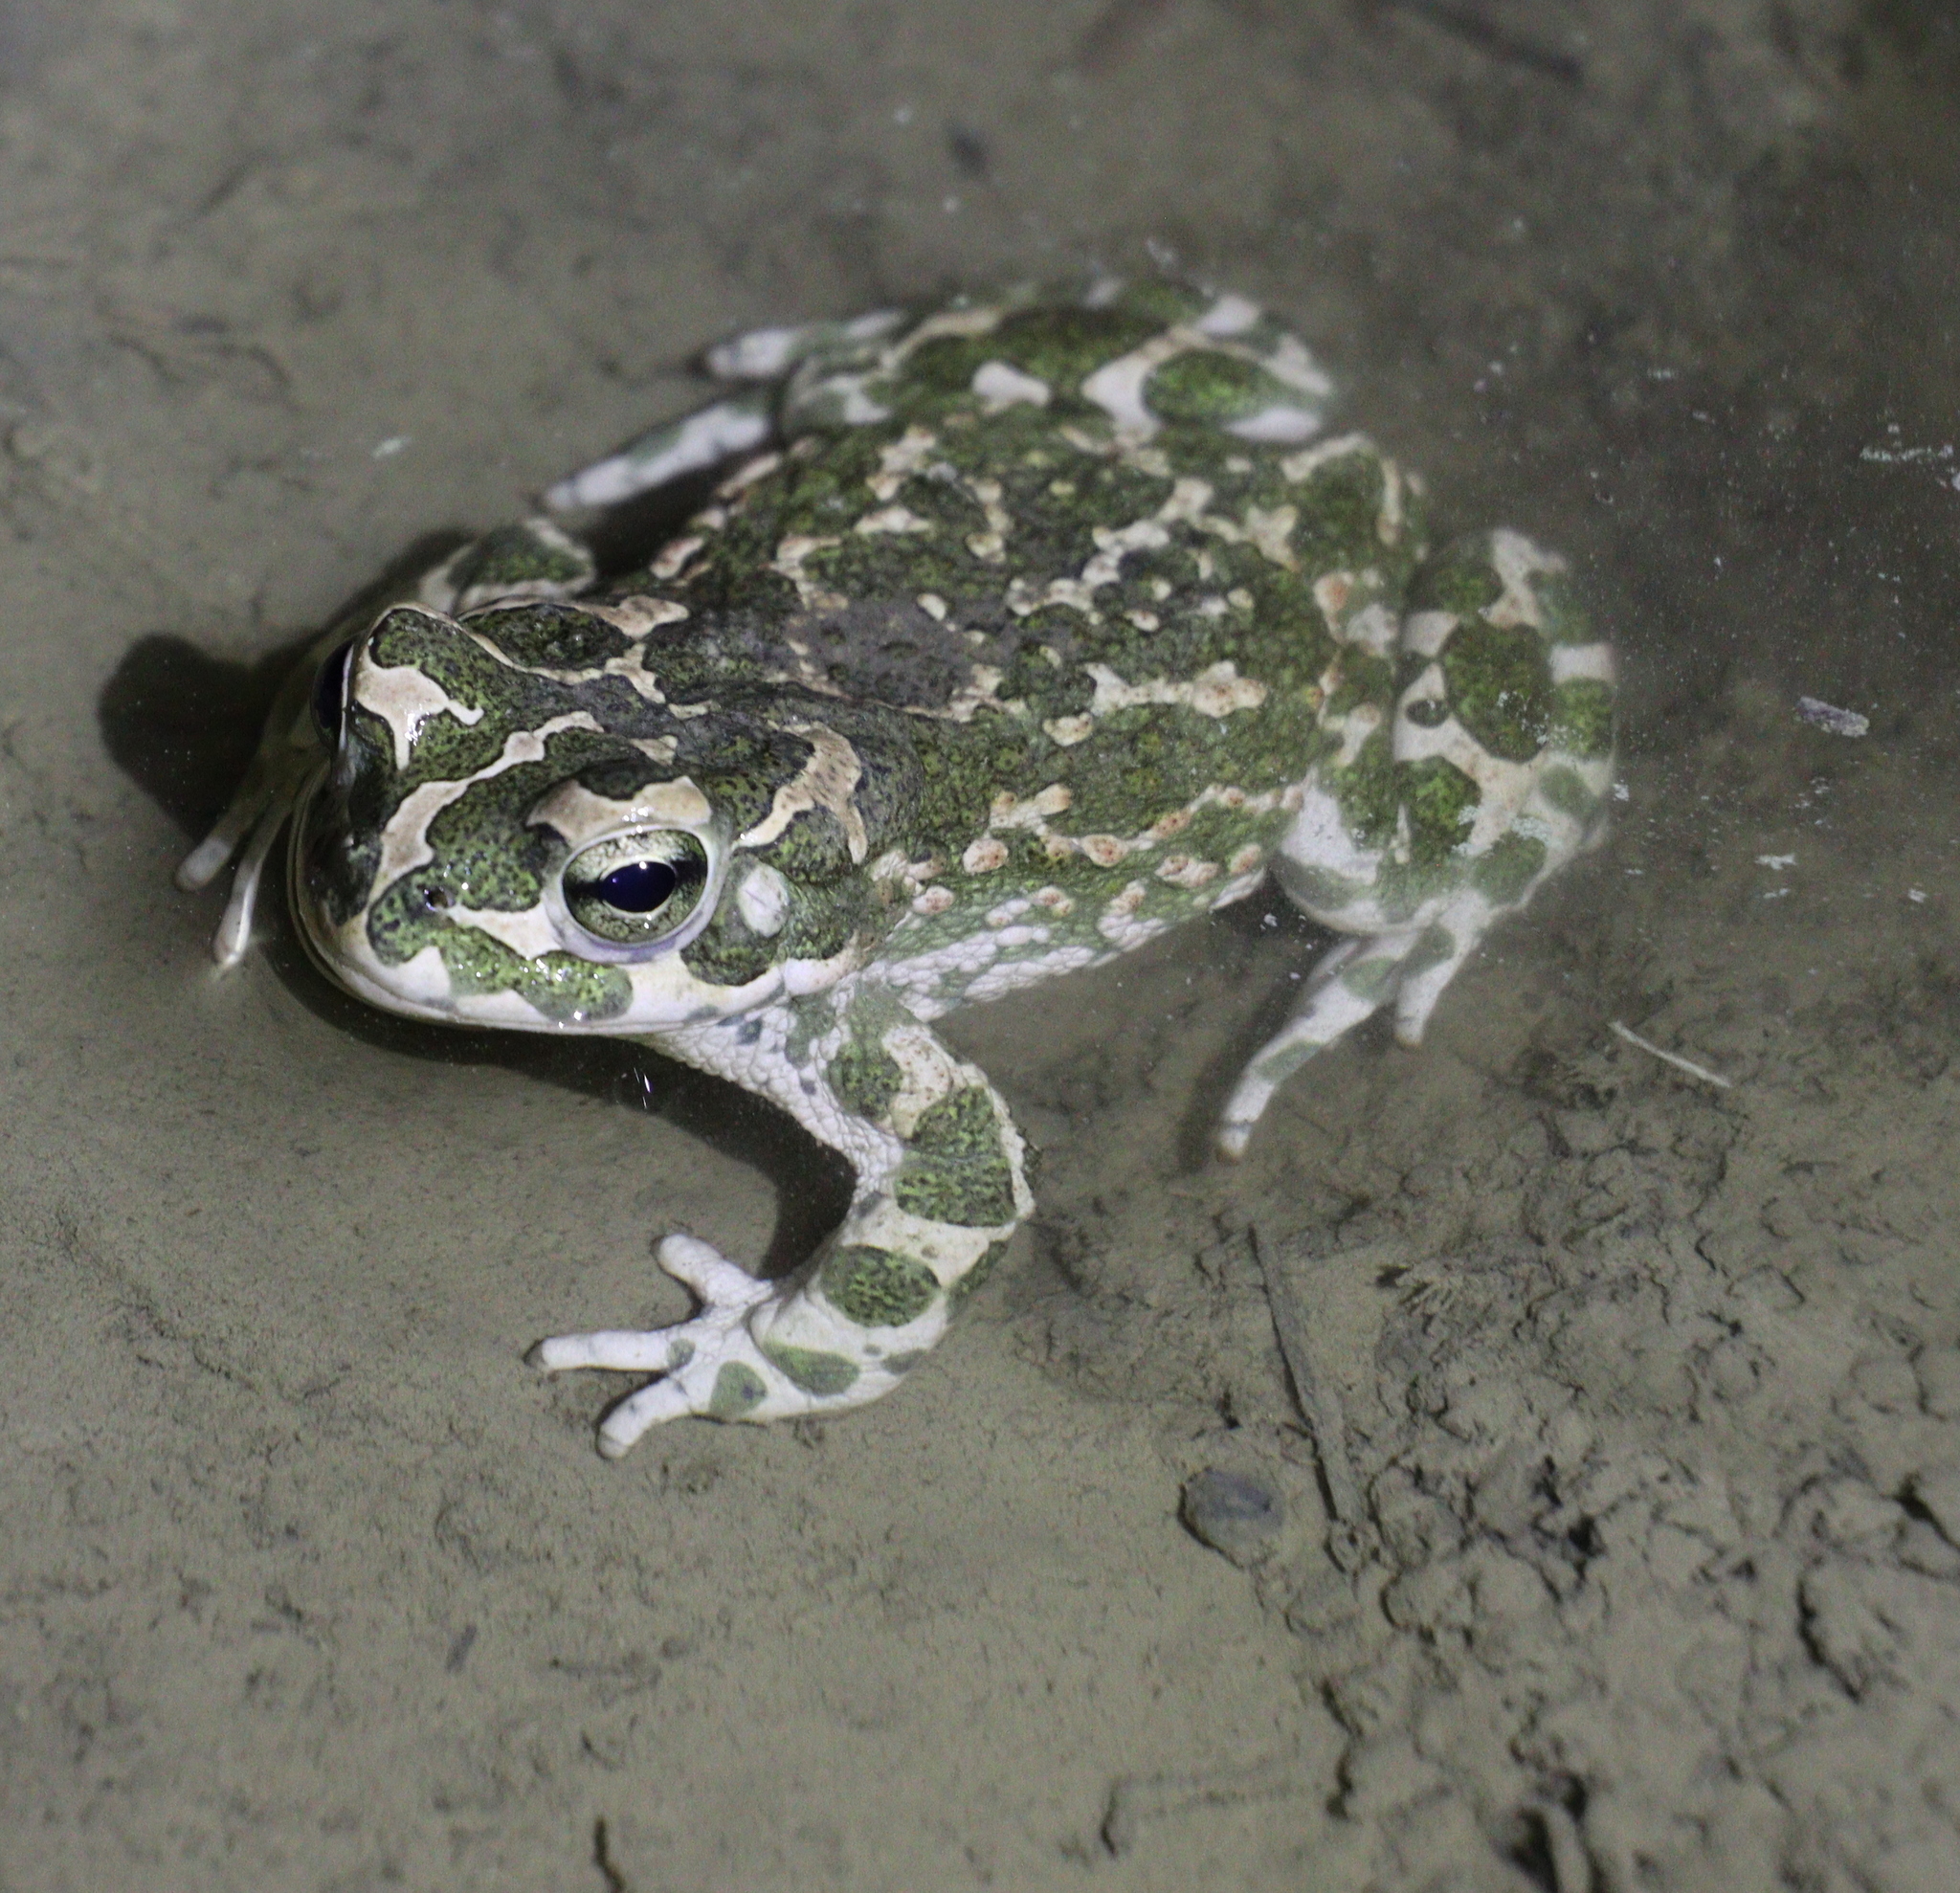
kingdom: Animalia
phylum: Chordata
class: Amphibia
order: Anura
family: Bufonidae
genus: Bufotes
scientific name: Bufotes viridis
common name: European green toad
